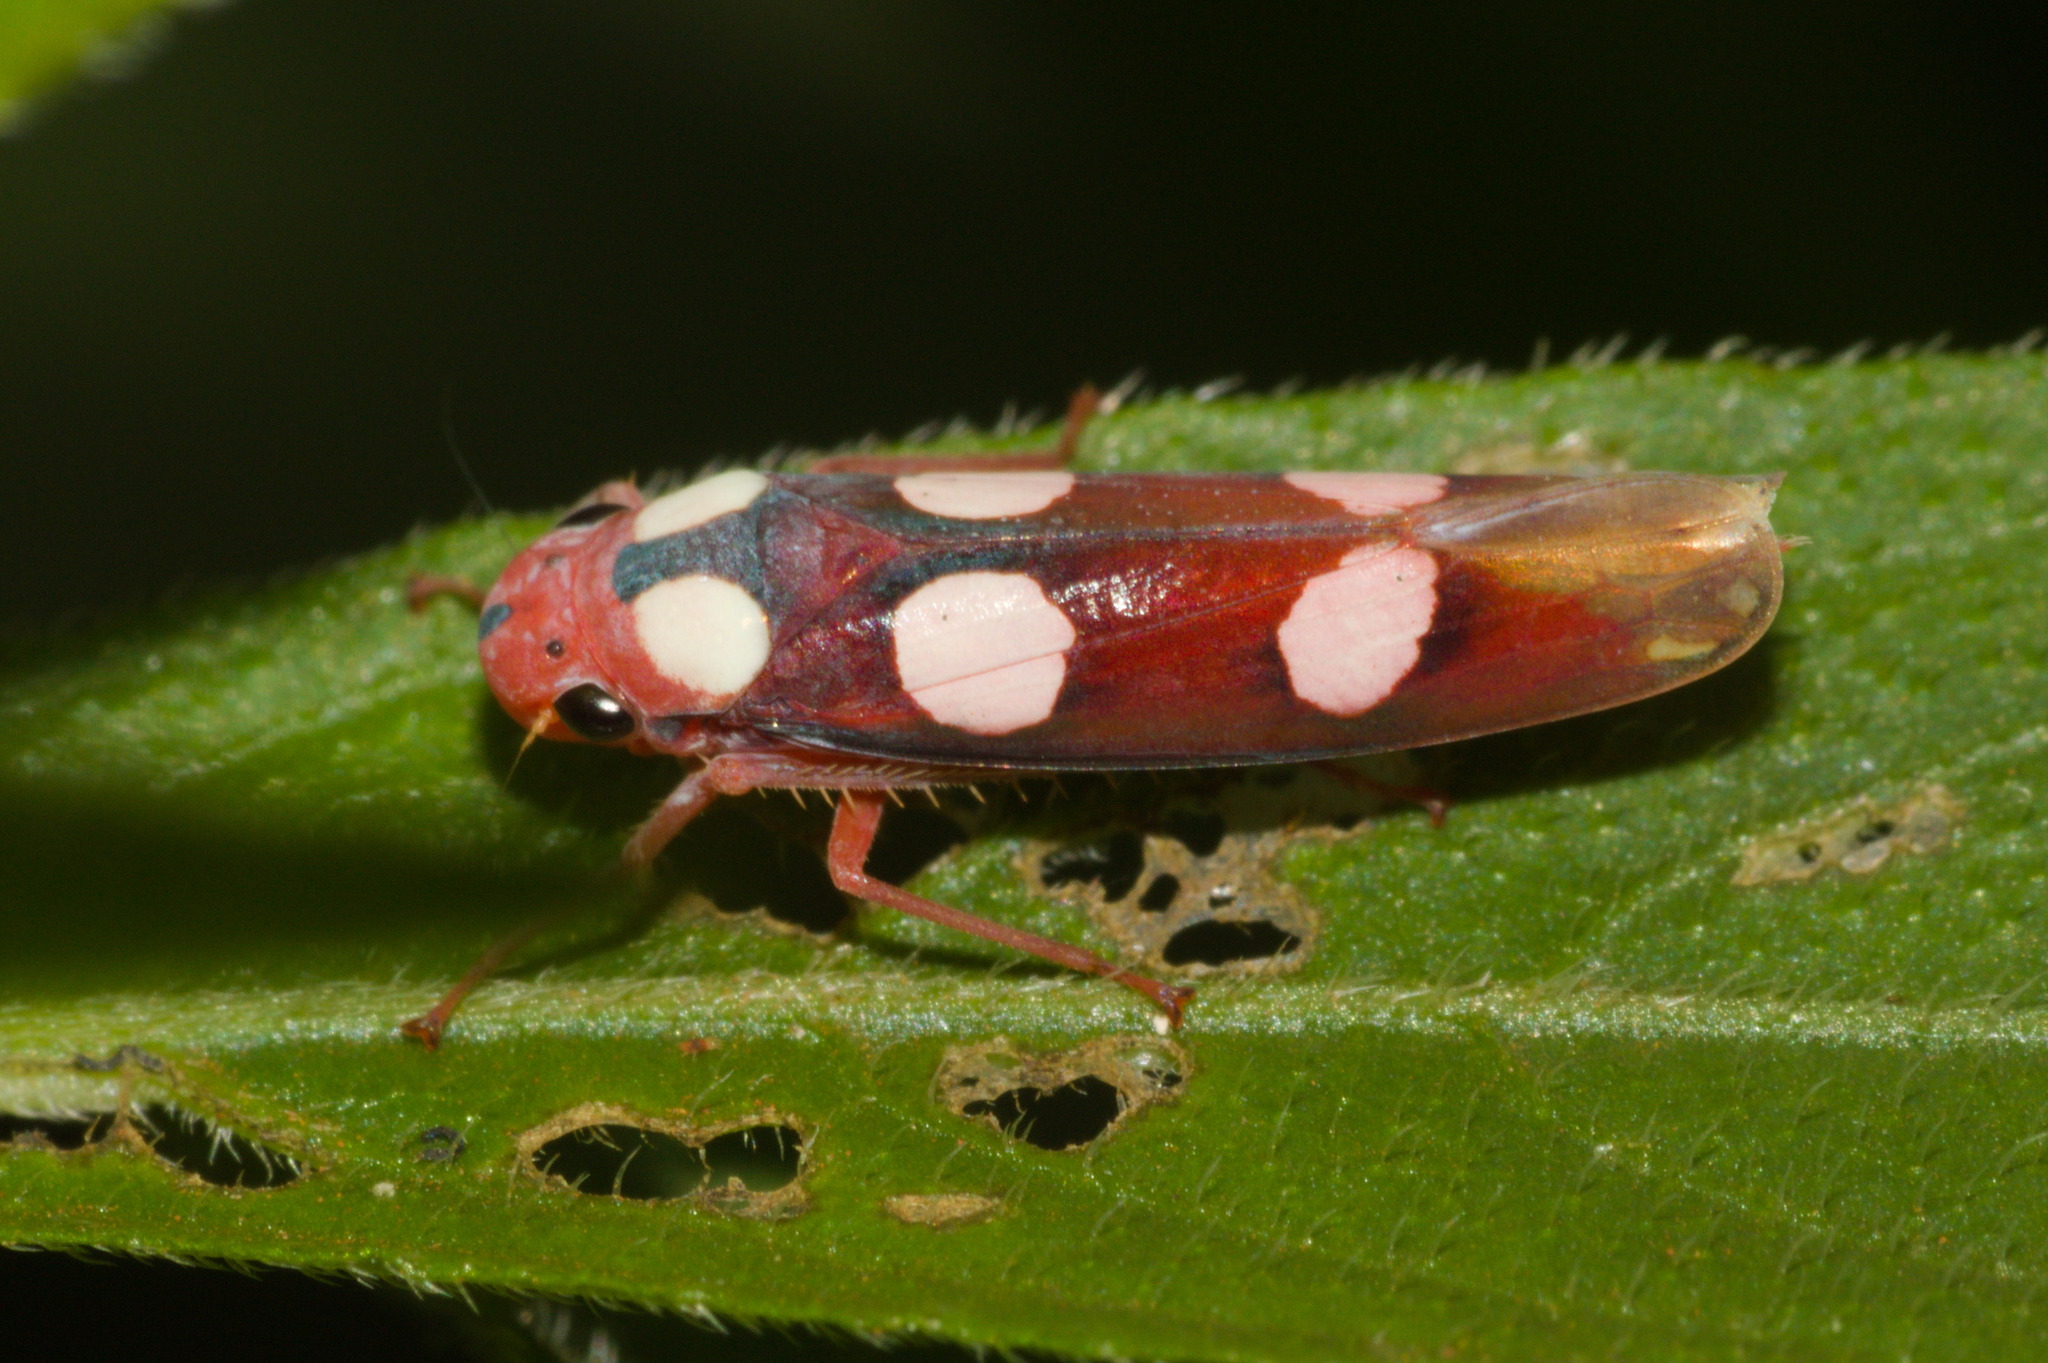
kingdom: Animalia
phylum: Arthropoda
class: Insecta
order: Hemiptera
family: Cicadellidae
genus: Tettisama
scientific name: Tettisama quinquemaculata
